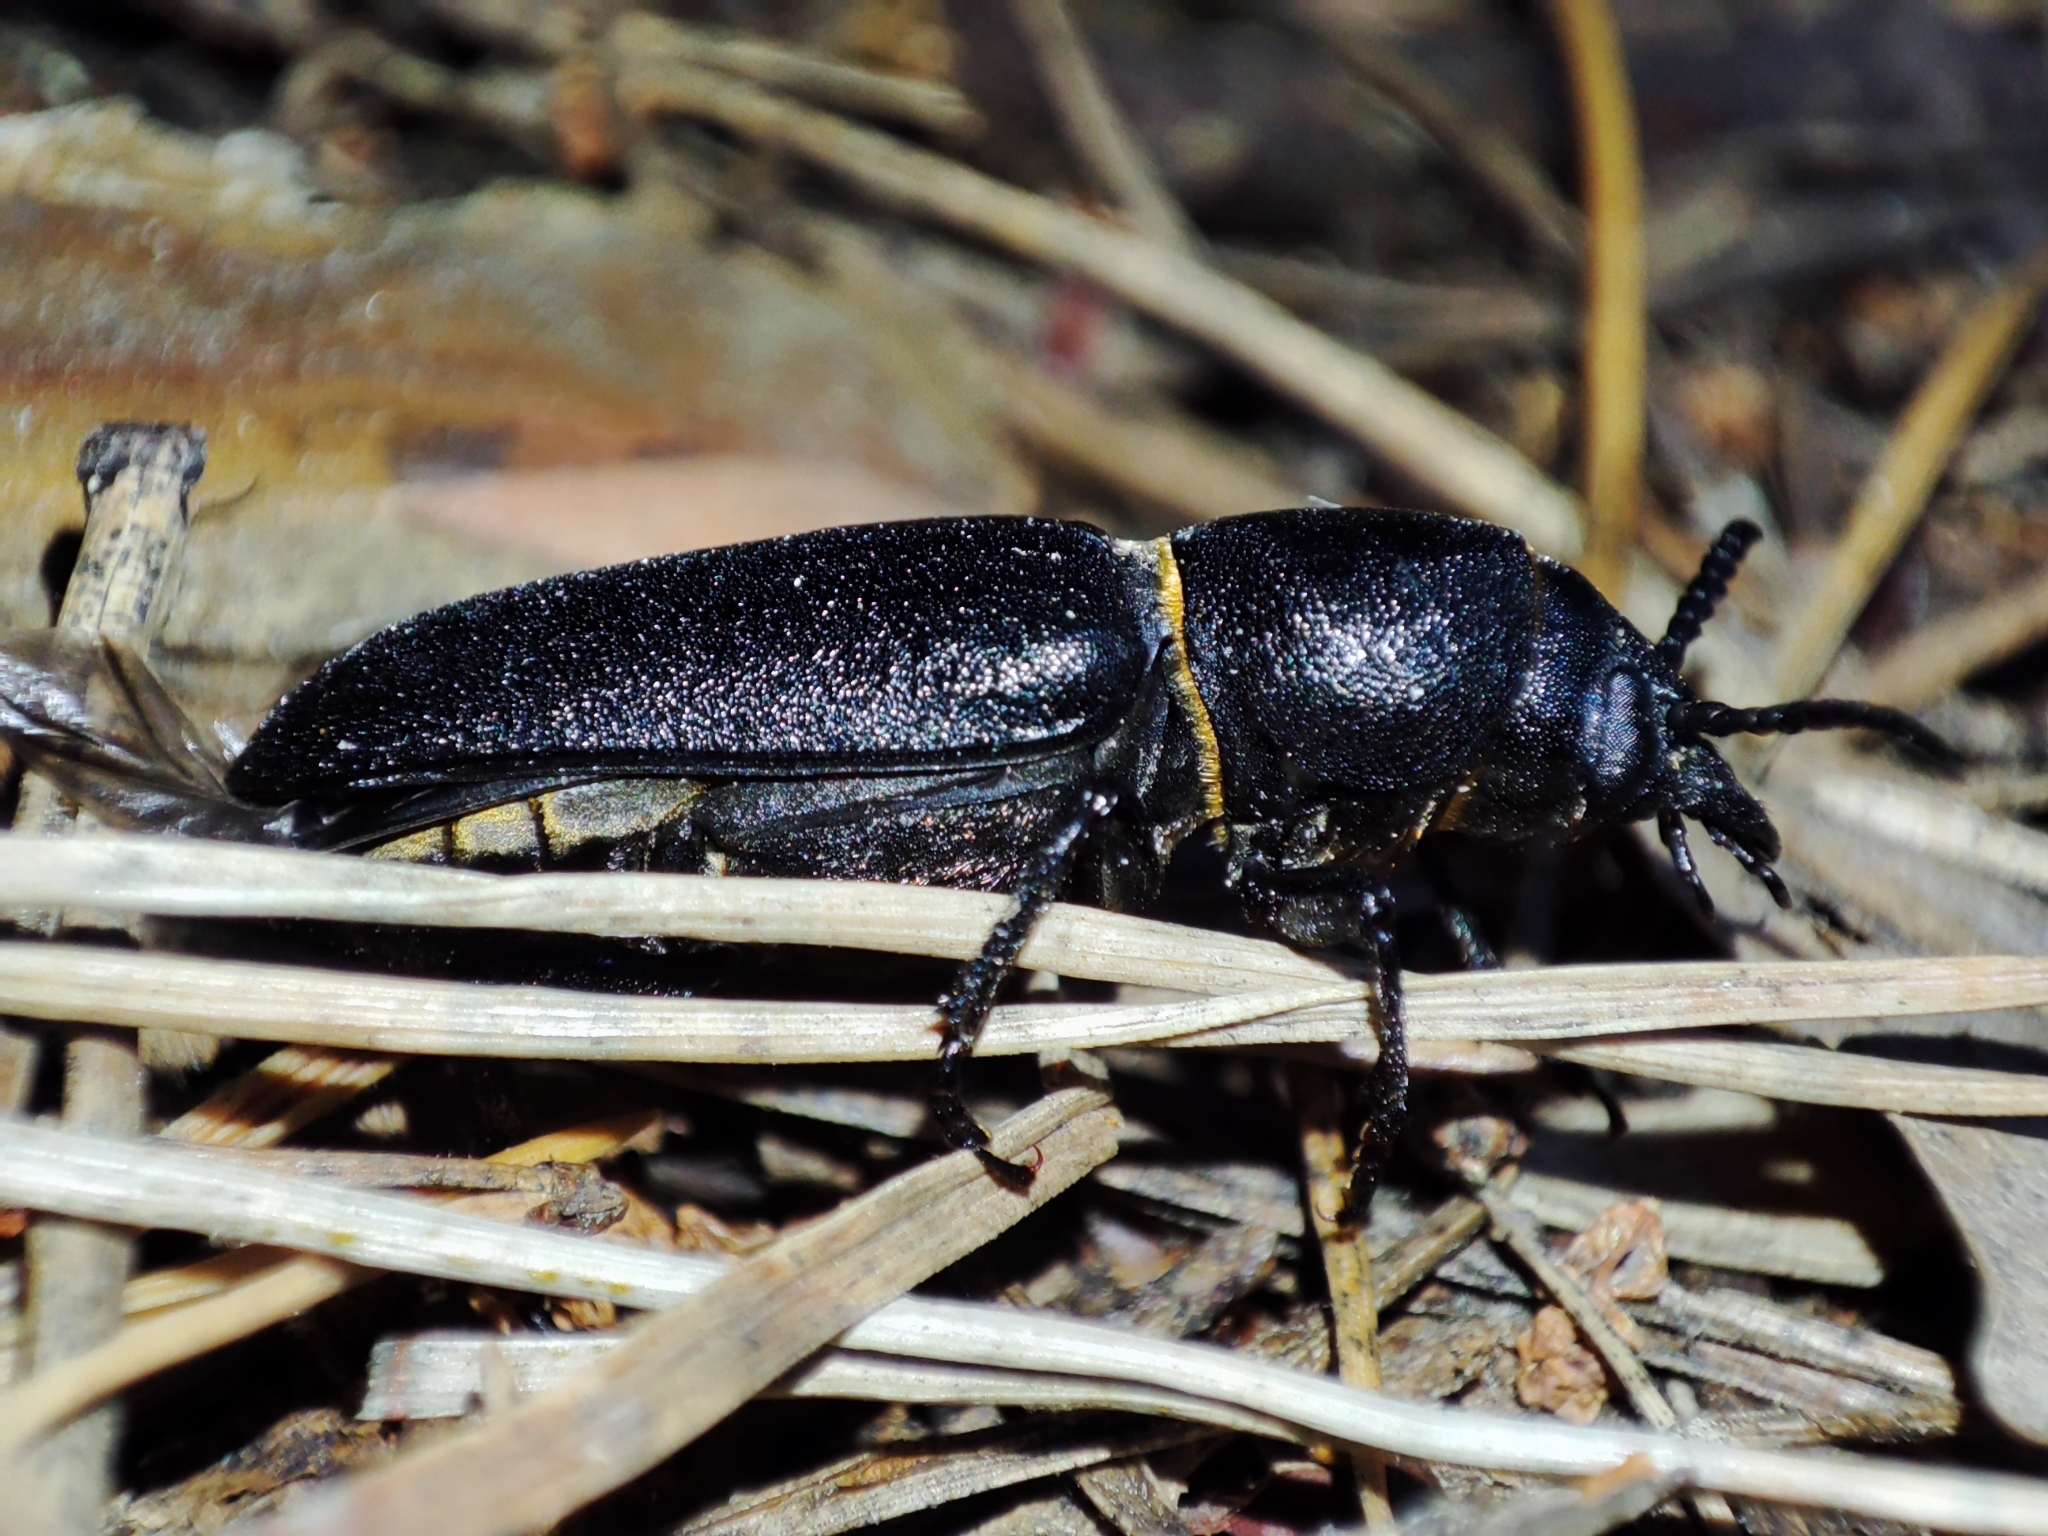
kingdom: Animalia
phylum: Arthropoda
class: Insecta
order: Coleoptera
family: Cerambycidae
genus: Spondylis
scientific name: Spondylis buprestoides
